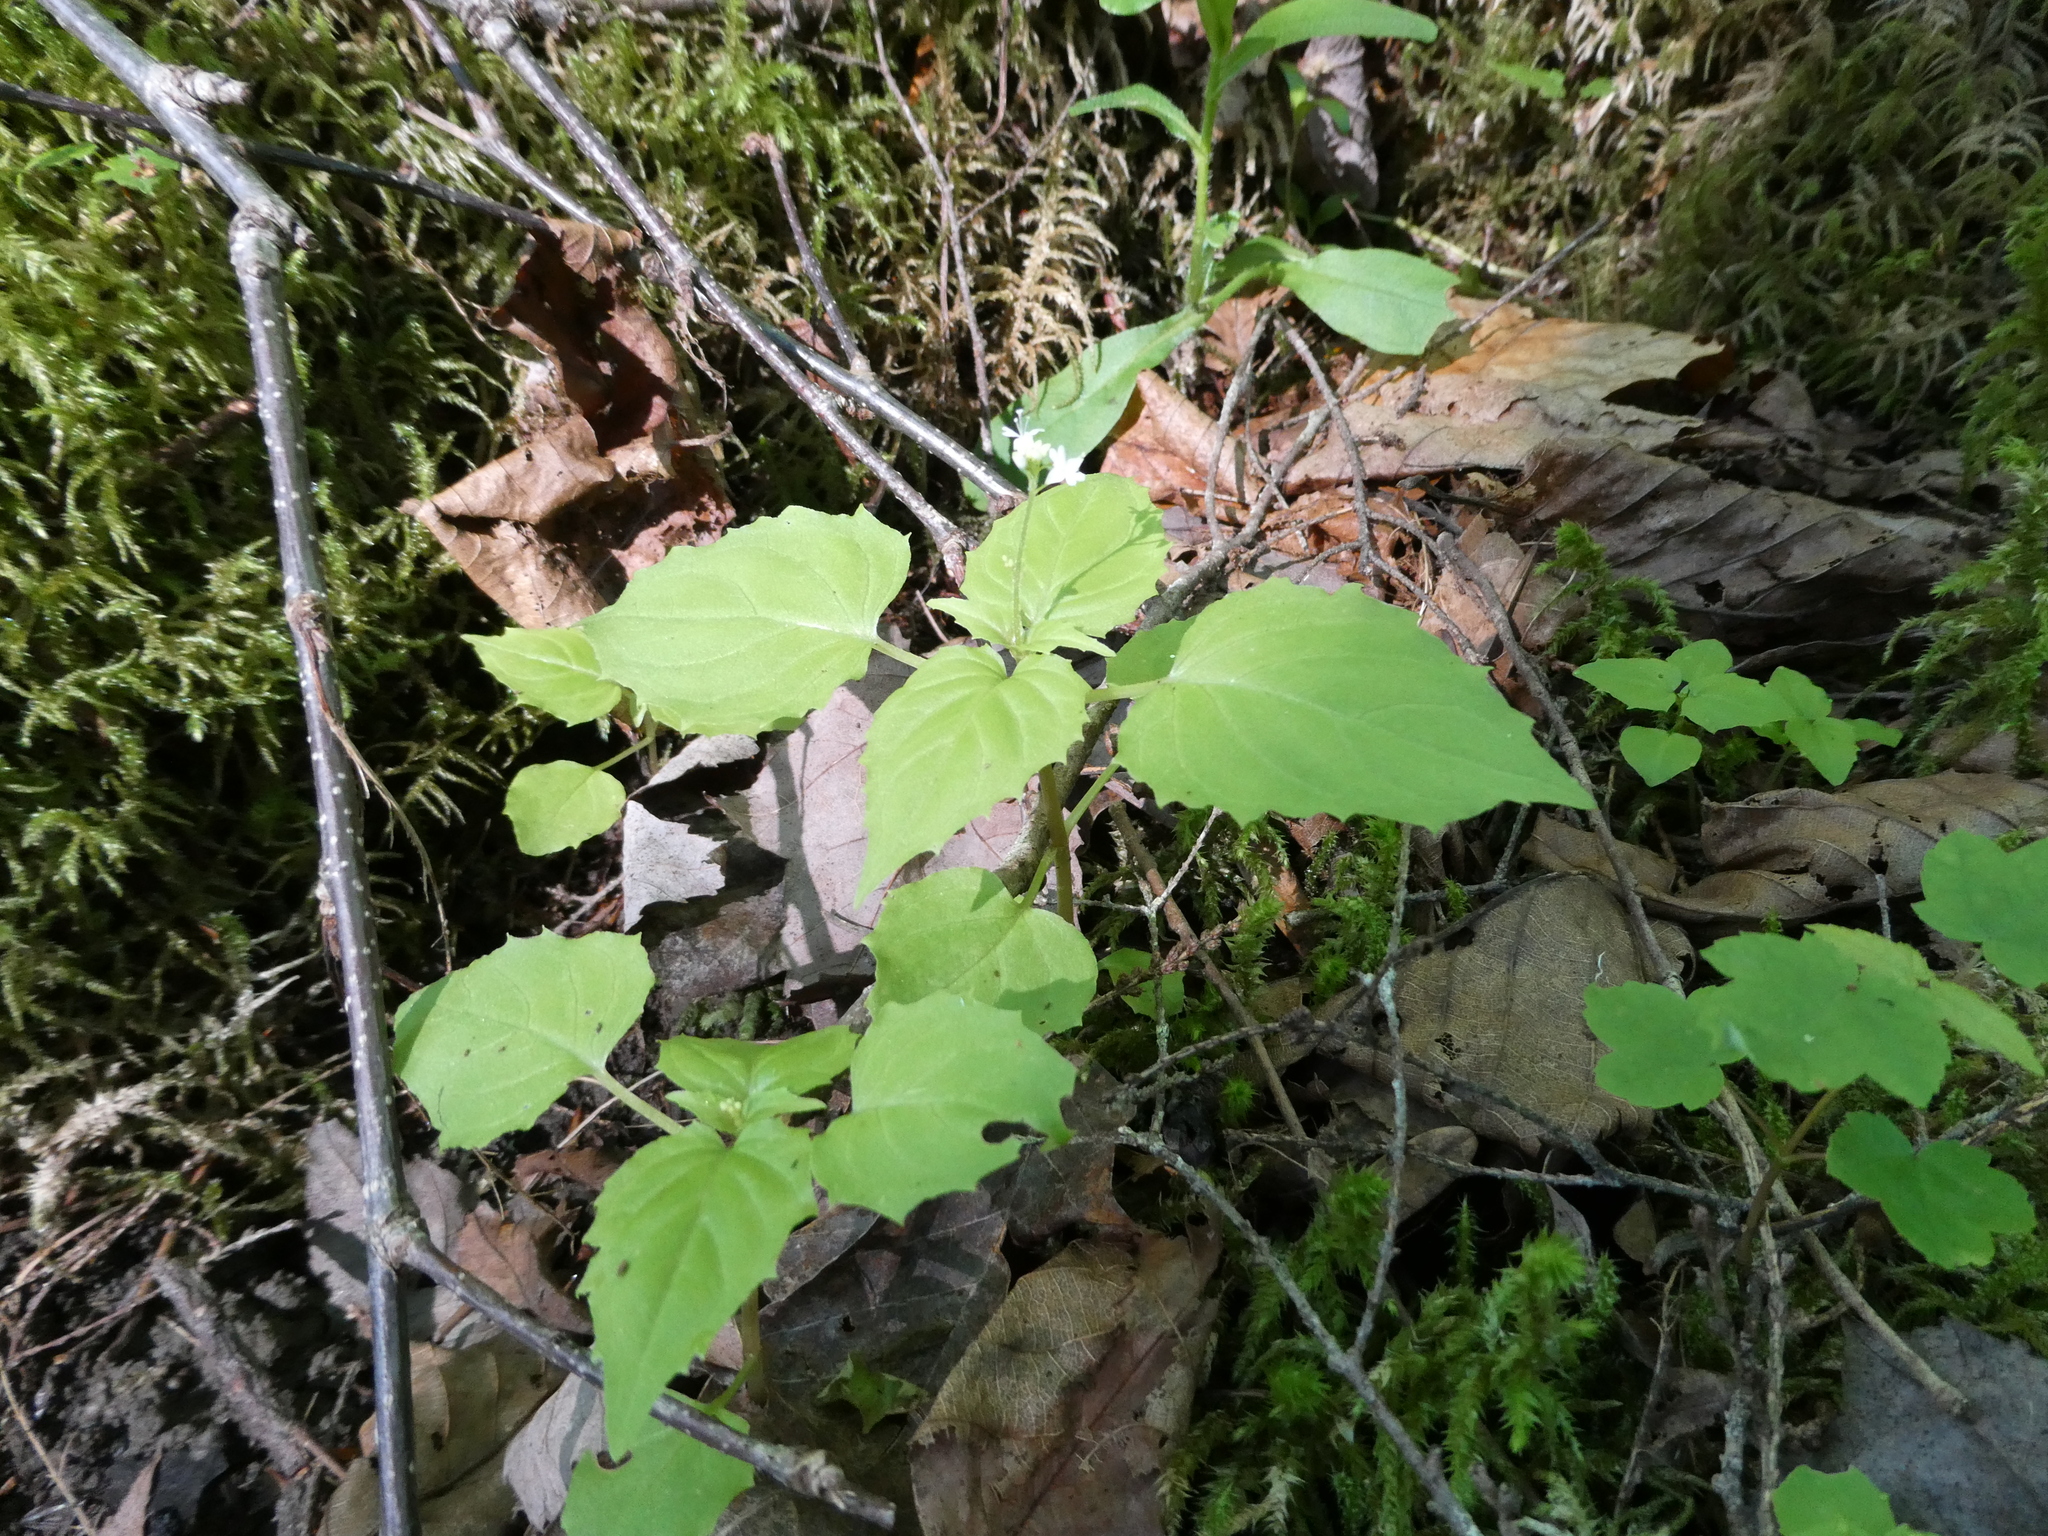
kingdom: Plantae
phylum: Tracheophyta
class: Magnoliopsida
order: Myrtales
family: Onagraceae
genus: Circaea
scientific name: Circaea alpina
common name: Alpine enchanter's-nightshade
